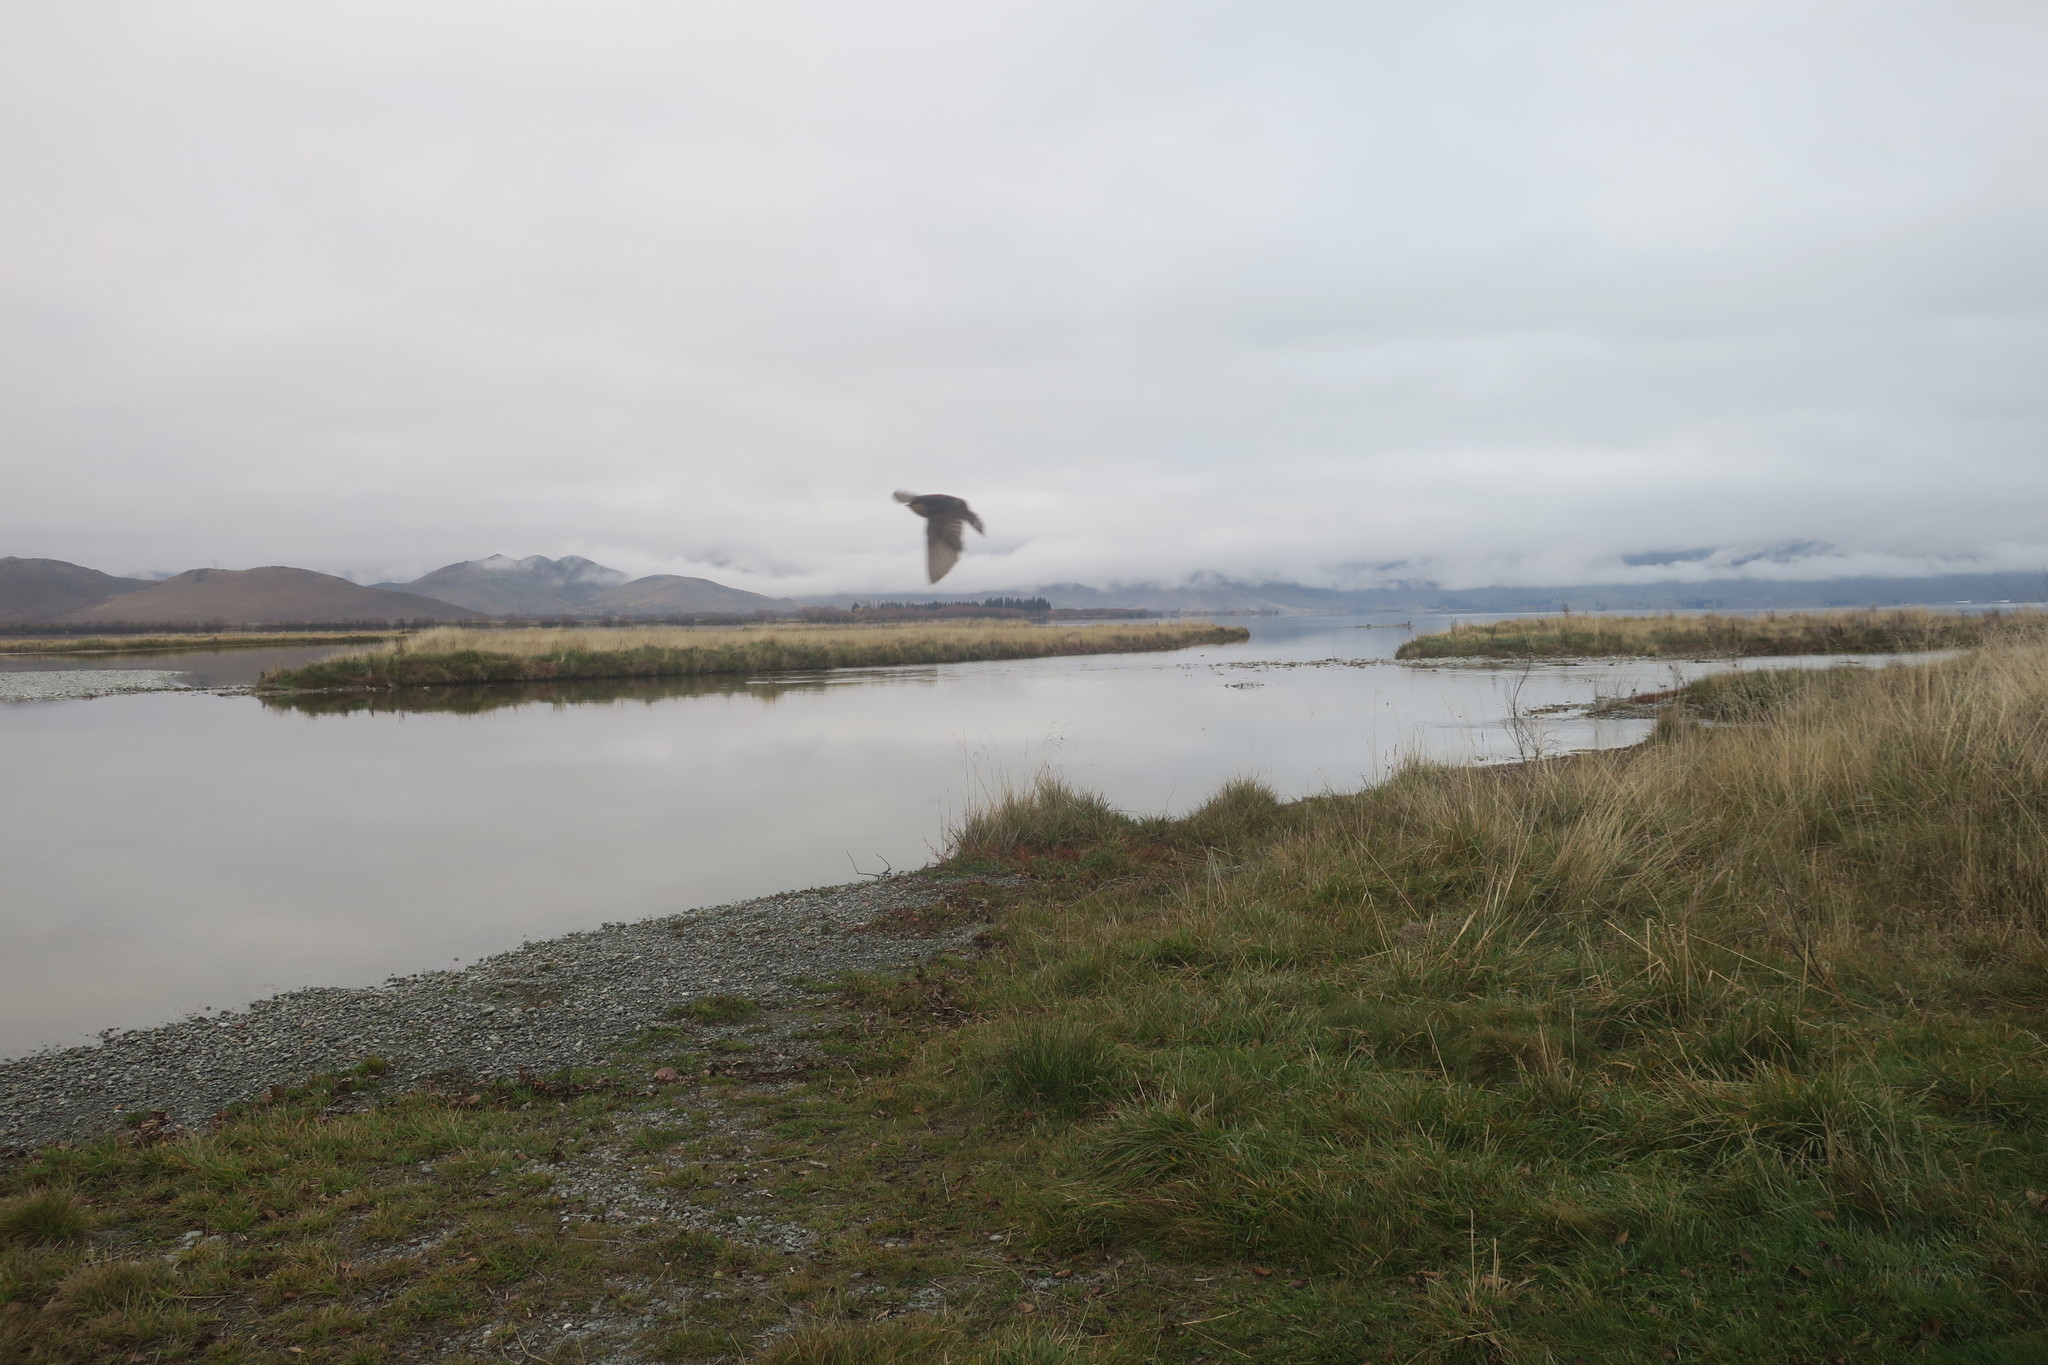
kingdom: Animalia
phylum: Chordata
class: Aves
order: Passeriformes
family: Hirundinidae
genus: Hirundo
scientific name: Hirundo neoxena
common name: Welcome swallow
